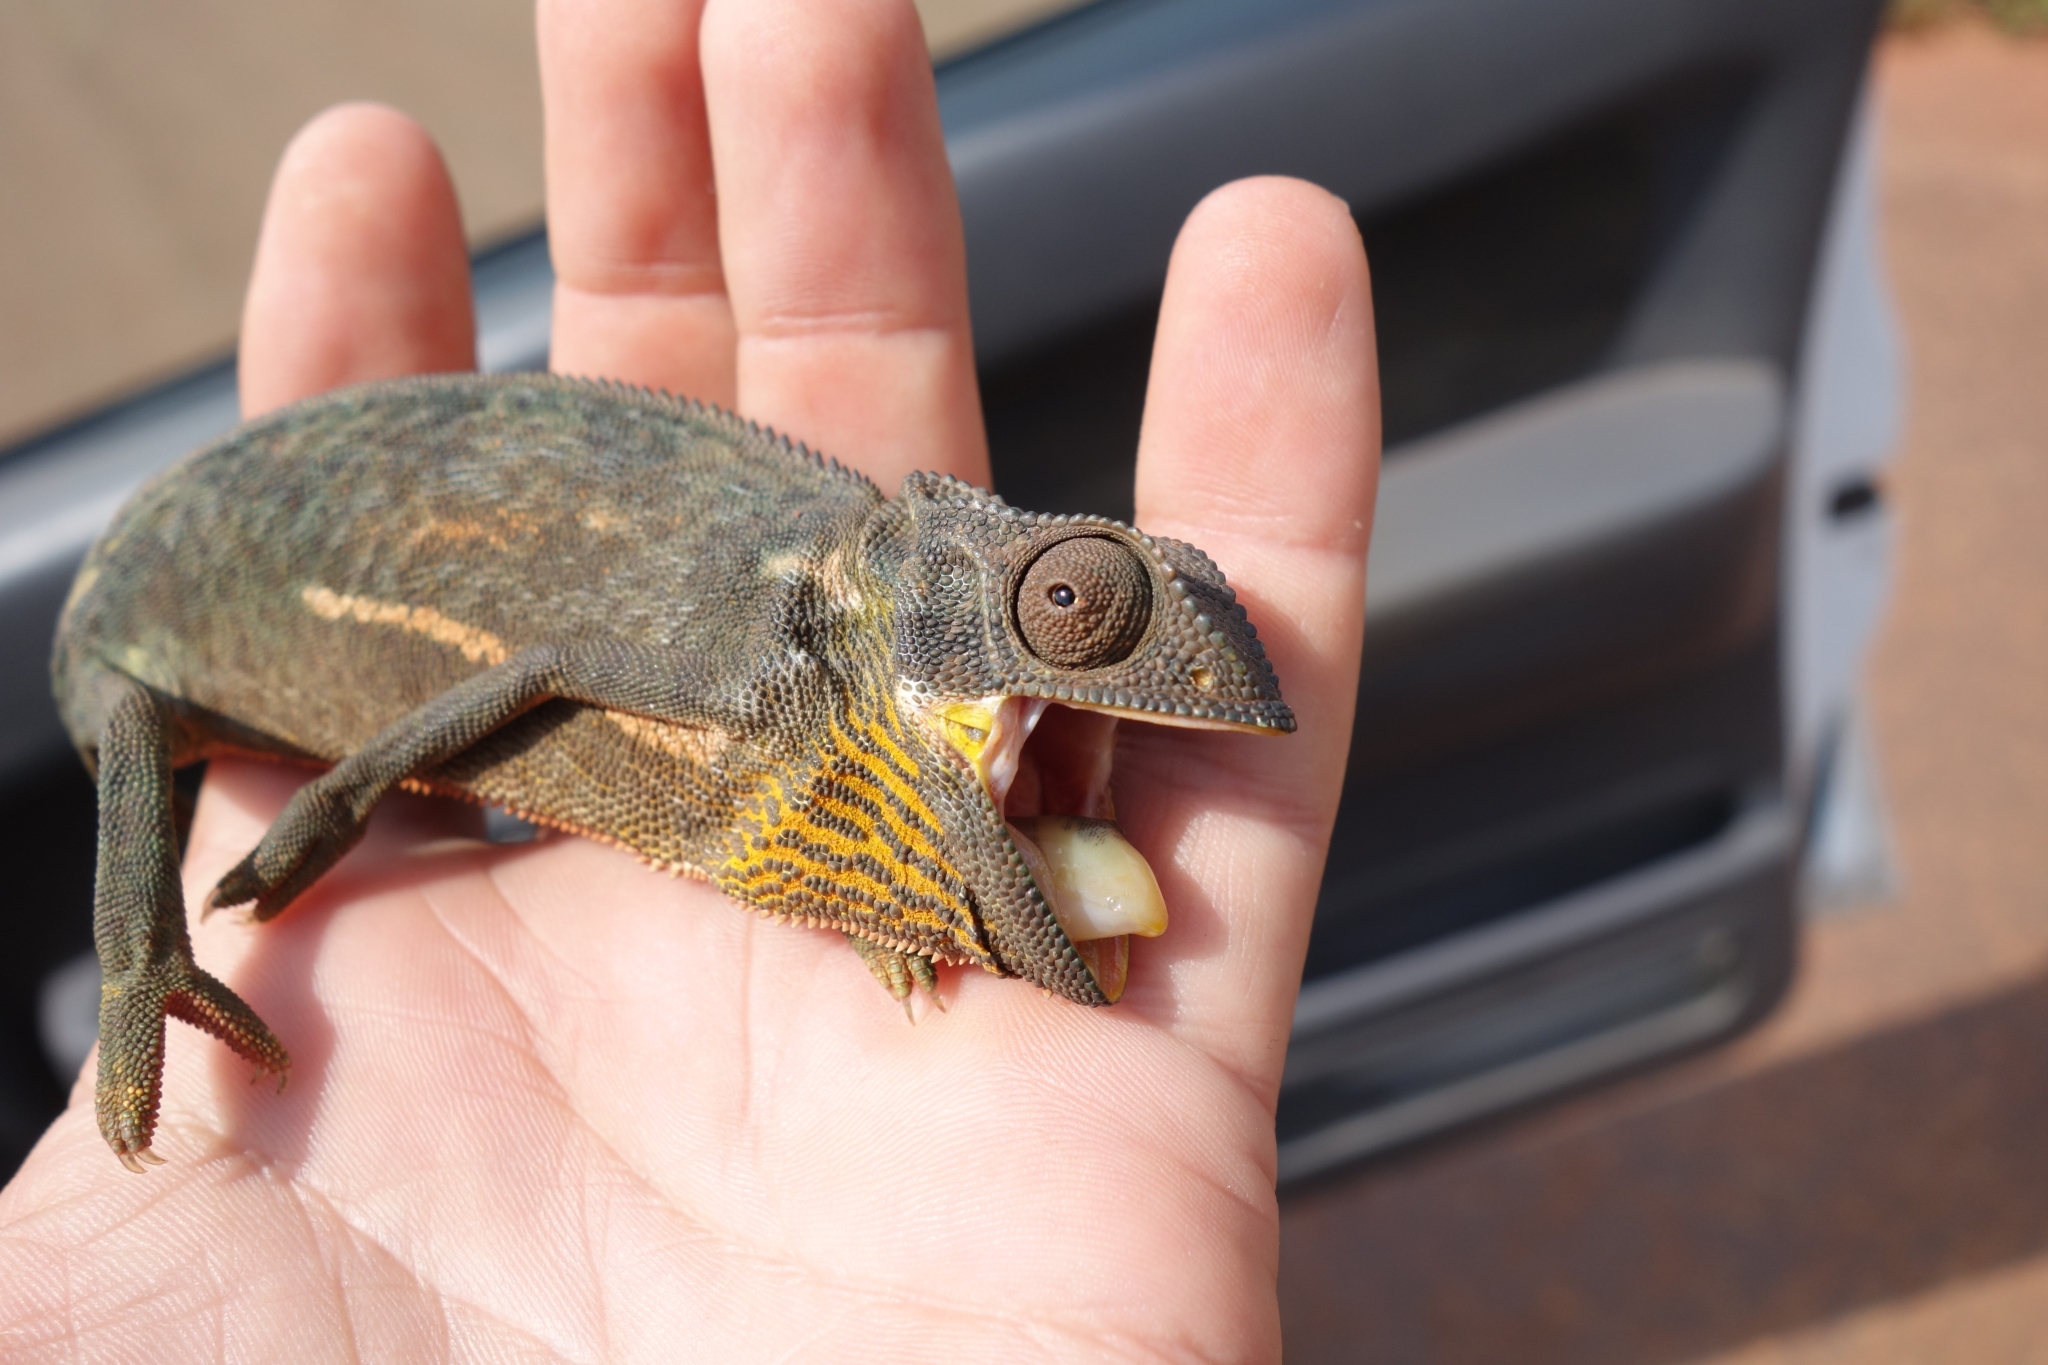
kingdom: Animalia
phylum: Chordata
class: Squamata
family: Chamaeleonidae
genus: Chamaeleo
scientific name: Chamaeleo dilepis
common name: Flapneck chameleon
